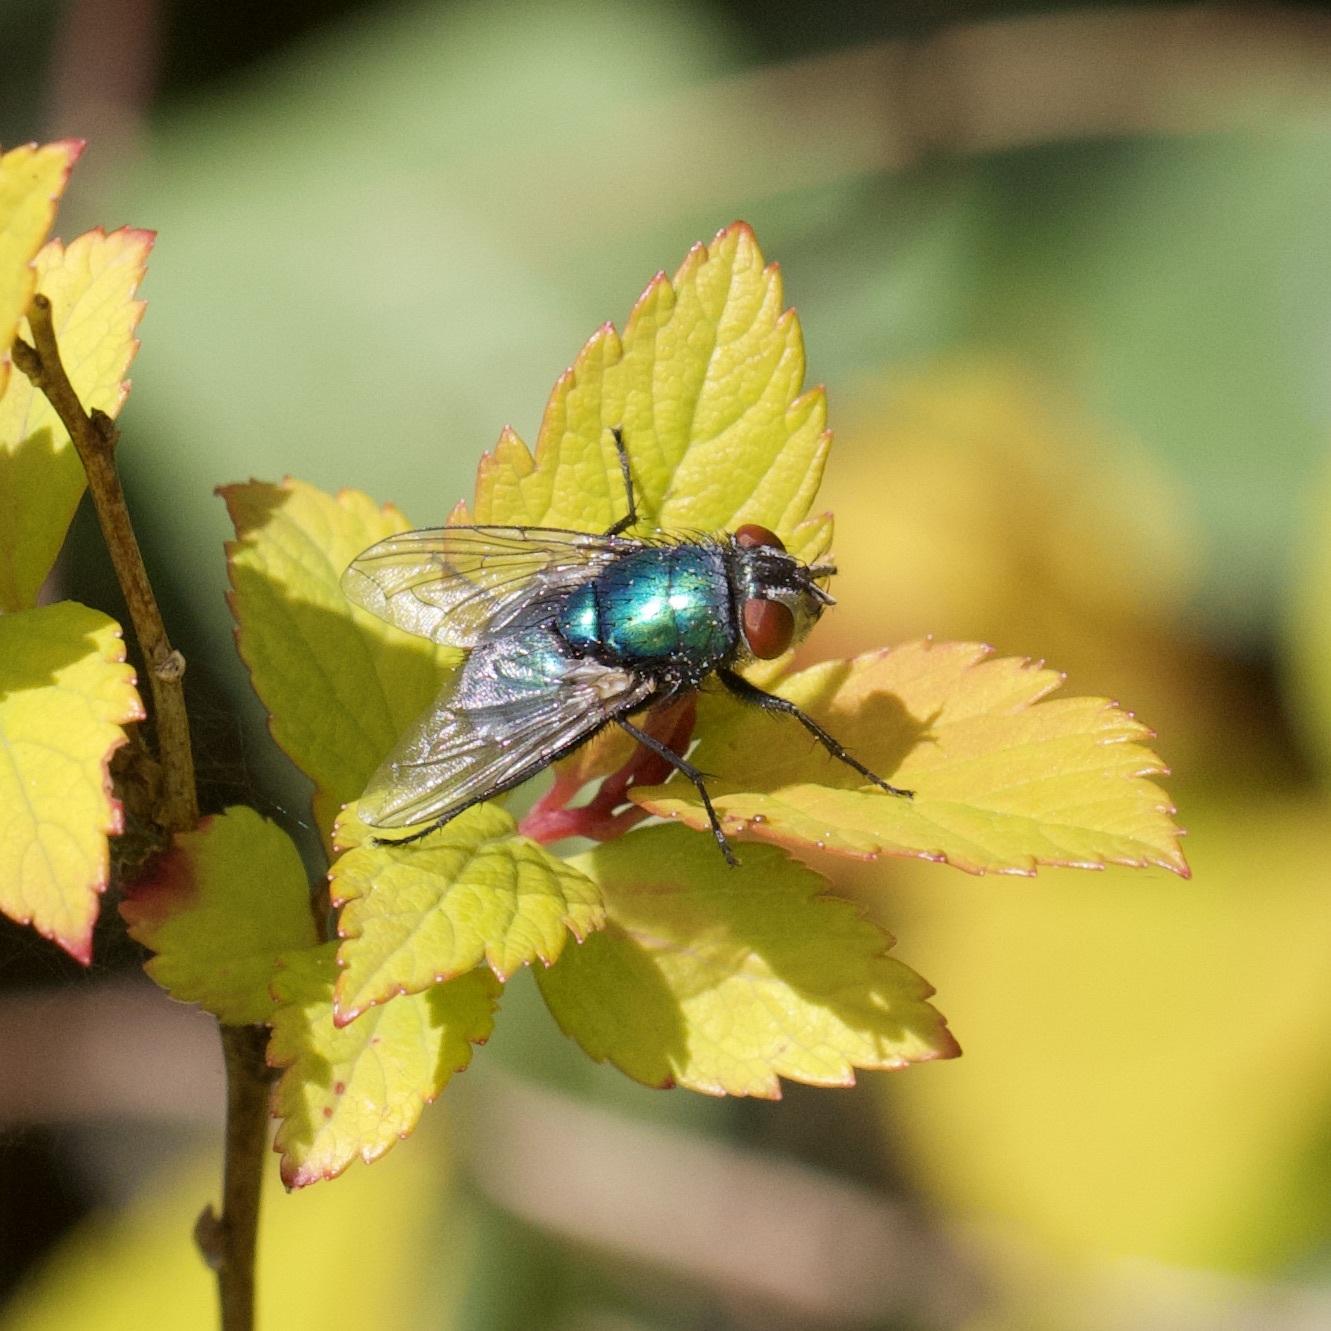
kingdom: Animalia
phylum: Arthropoda
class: Insecta
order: Diptera
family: Calliphoridae
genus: Lucilia
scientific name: Lucilia
